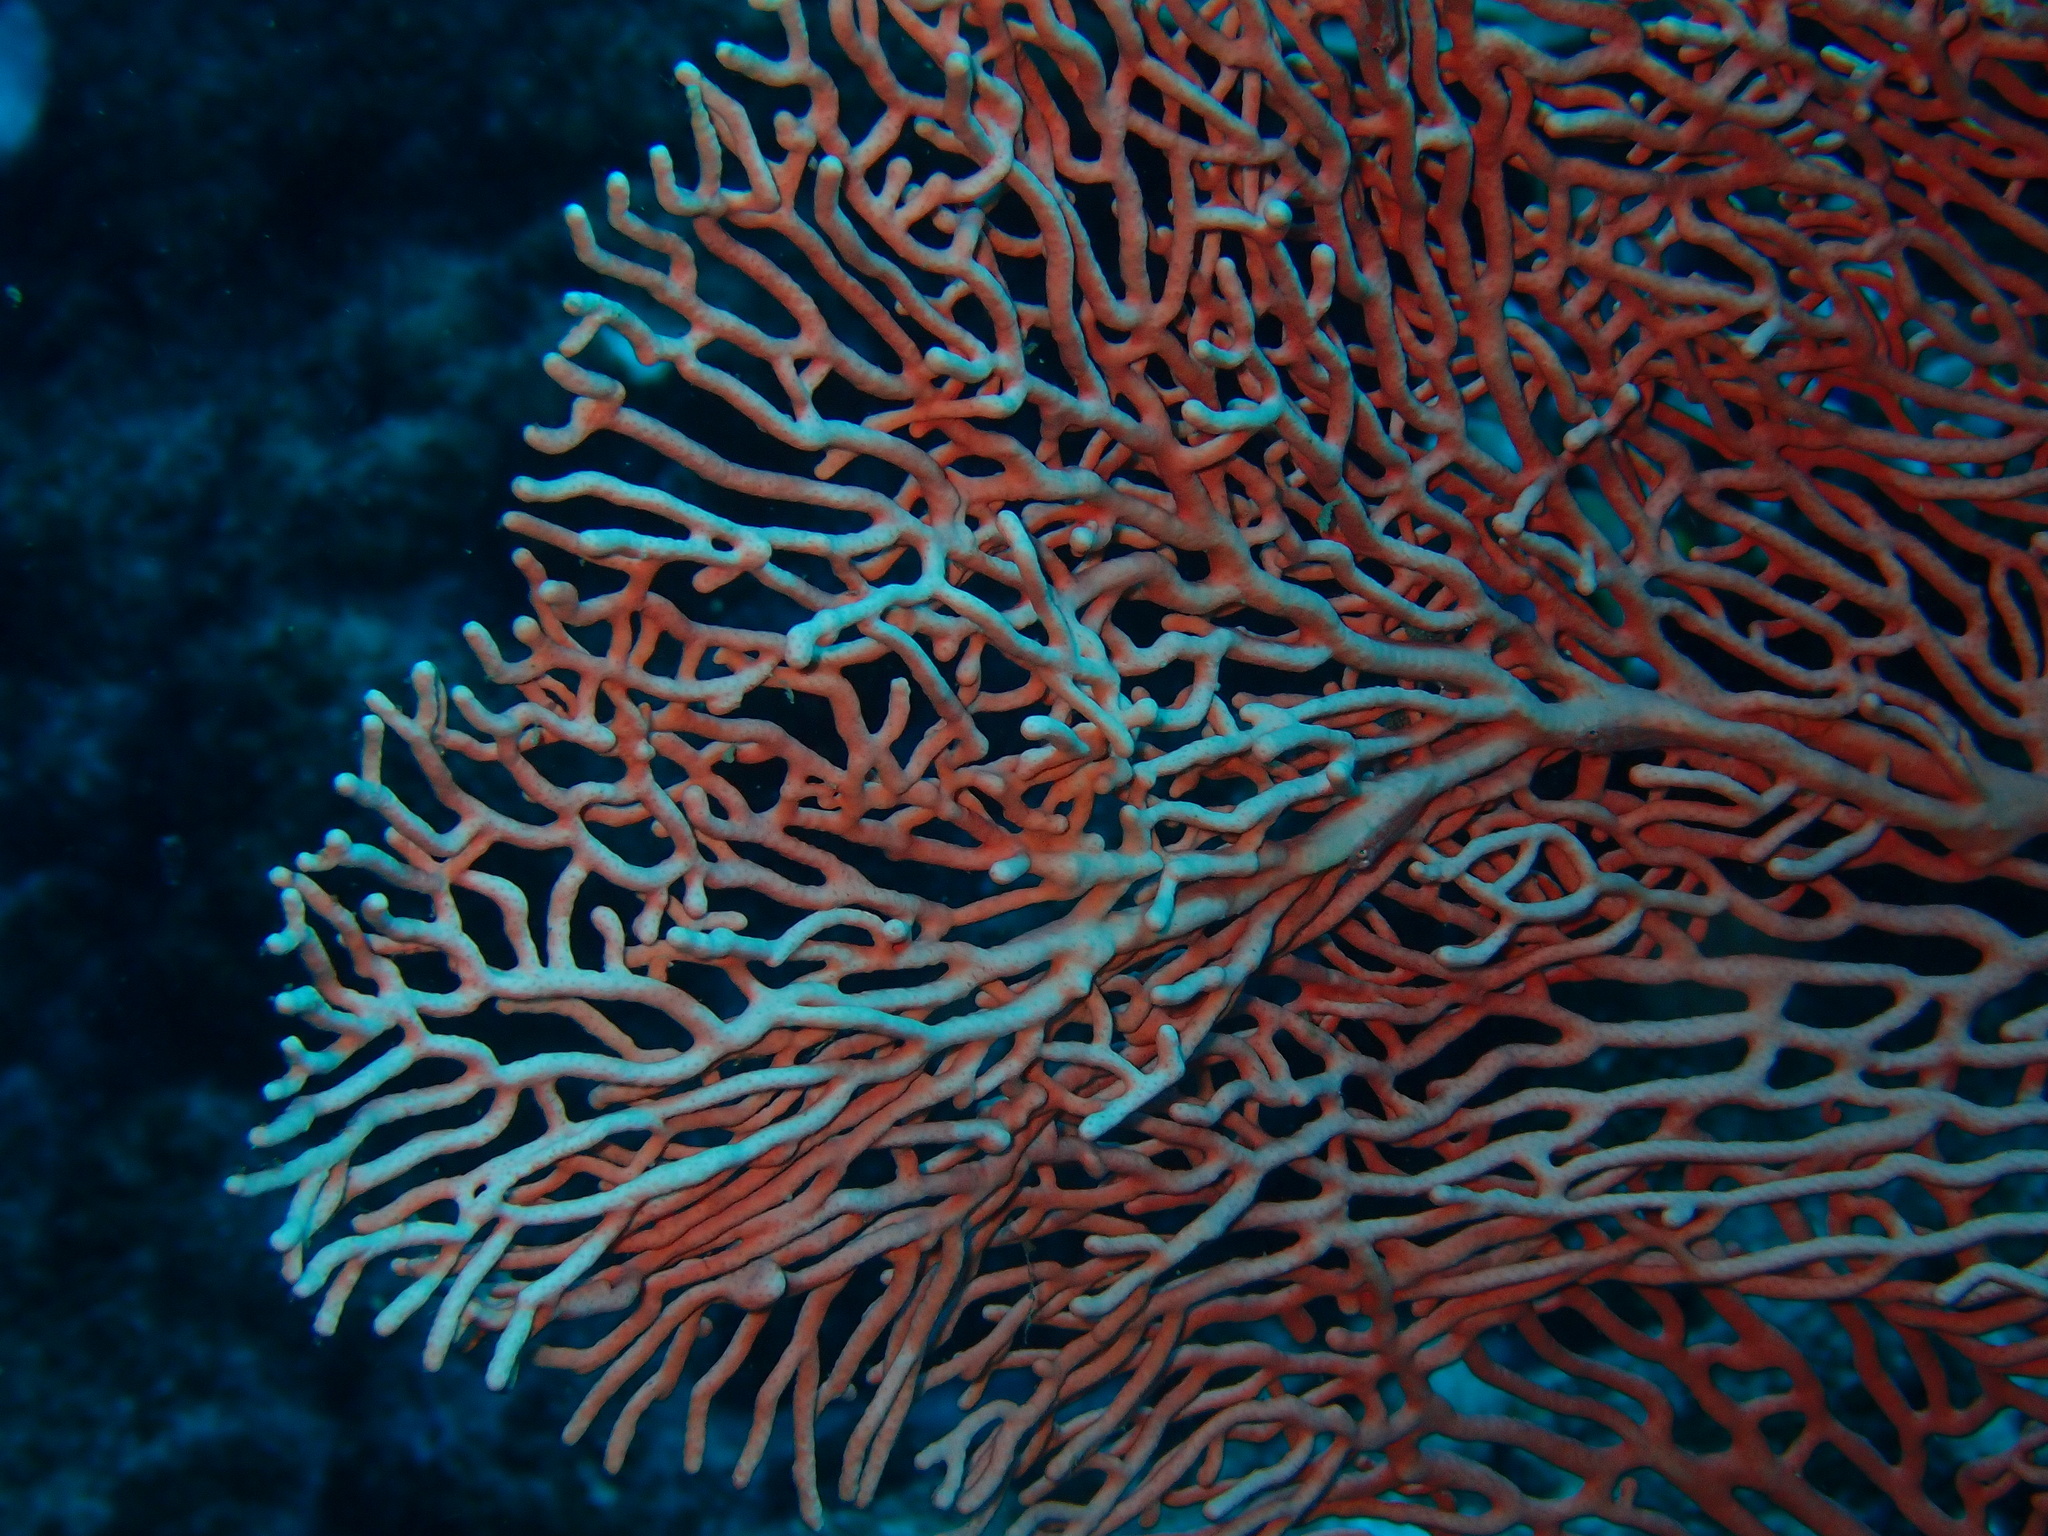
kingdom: Animalia
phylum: Cnidaria
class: Anthozoa
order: Malacalcyonacea
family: Subergorgiidae
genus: Annella
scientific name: Annella mollis
